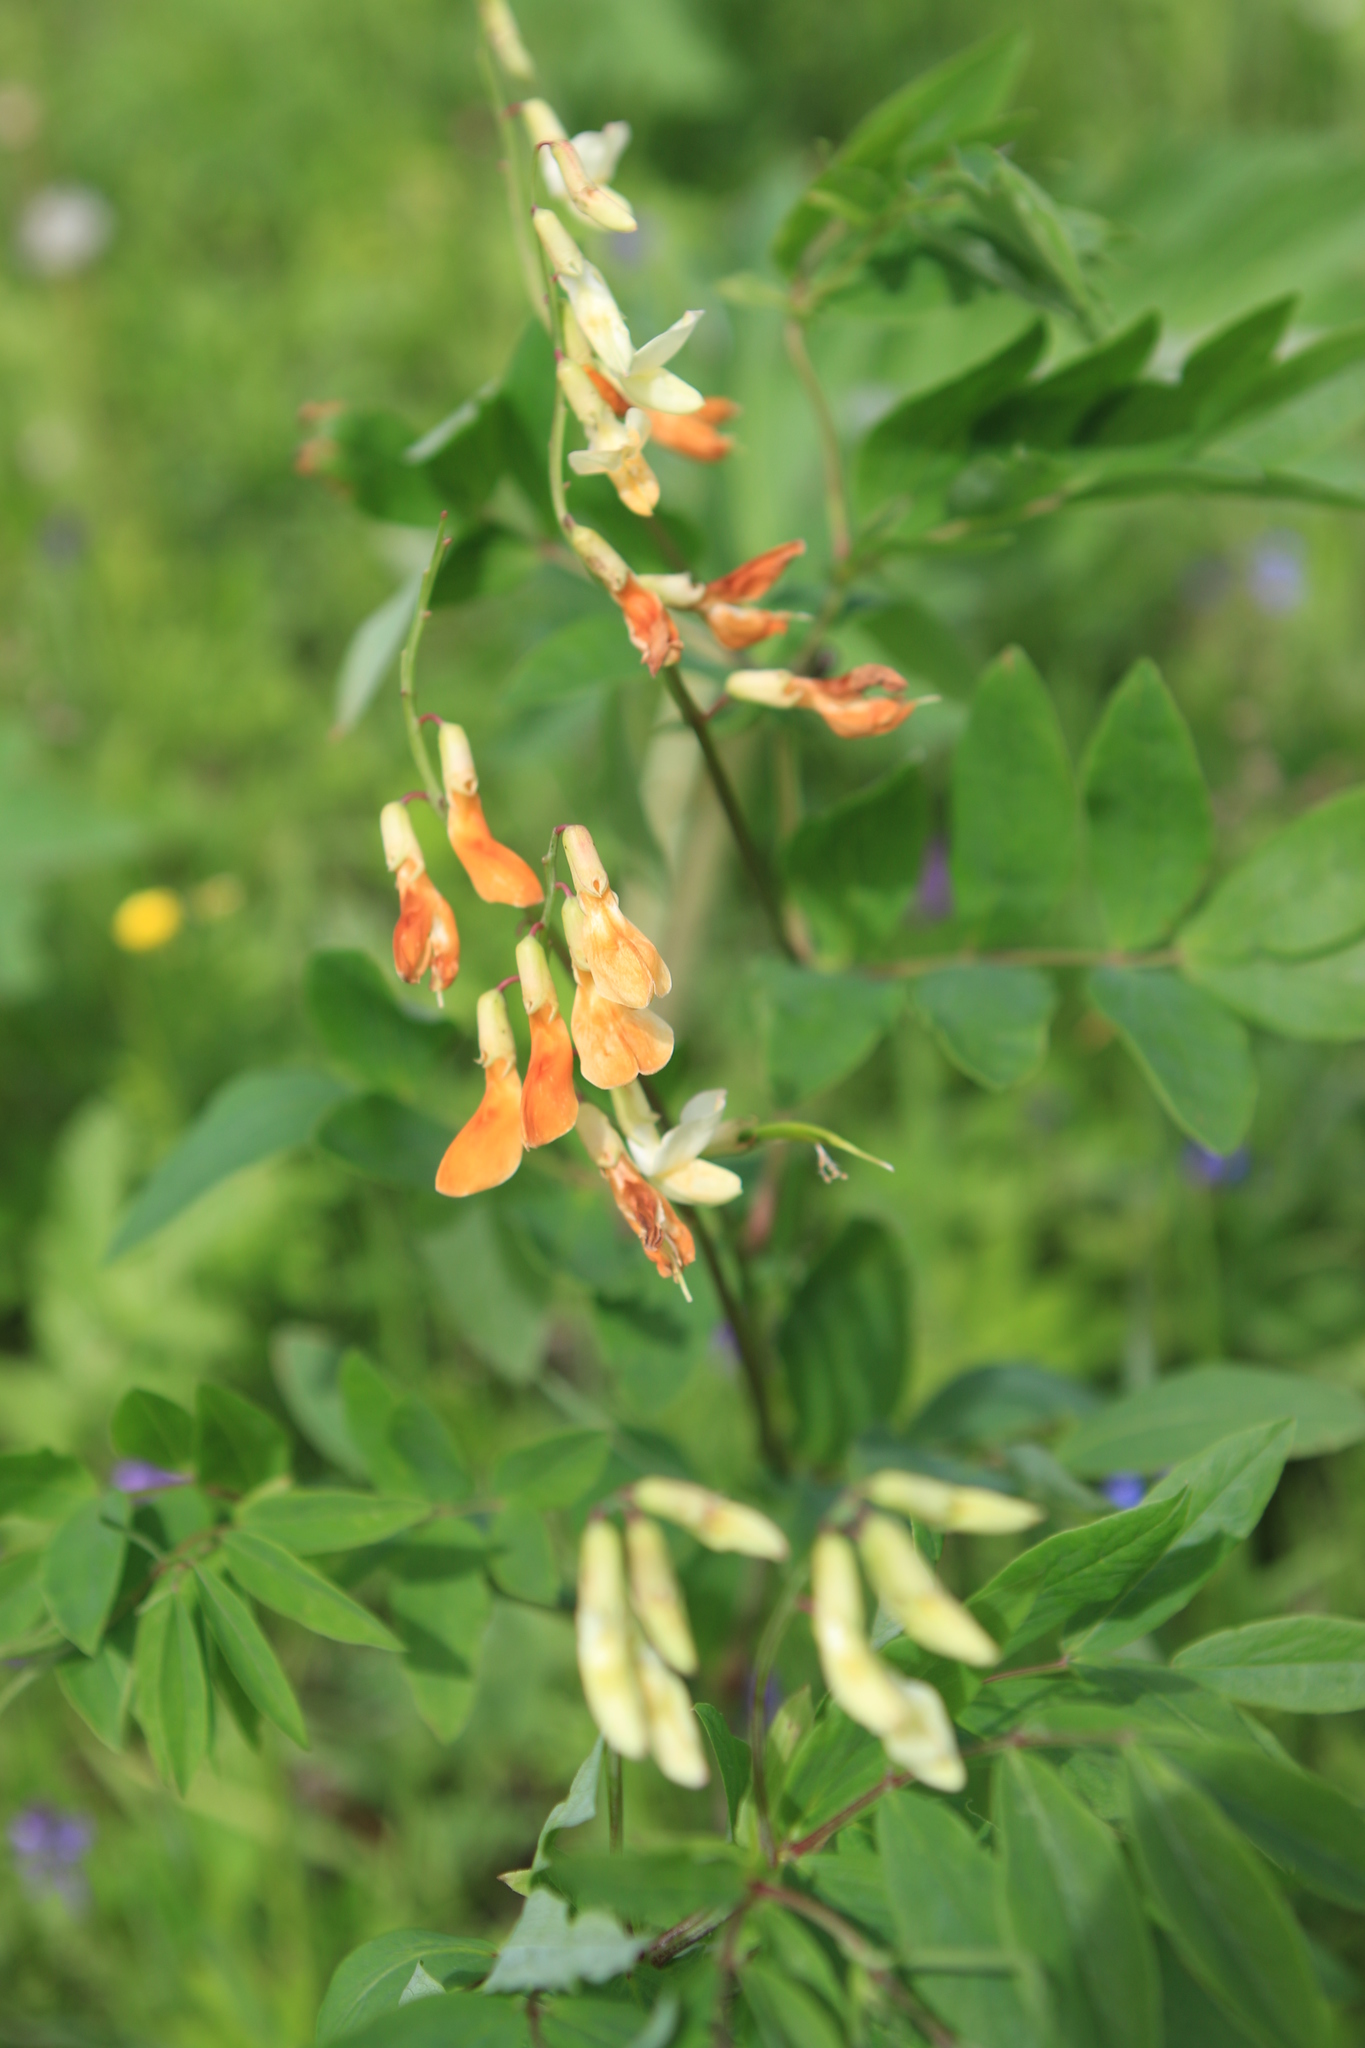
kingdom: Plantae
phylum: Tracheophyta
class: Magnoliopsida
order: Fabales
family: Fabaceae
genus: Lathyrus
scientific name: Lathyrus gmelinii
